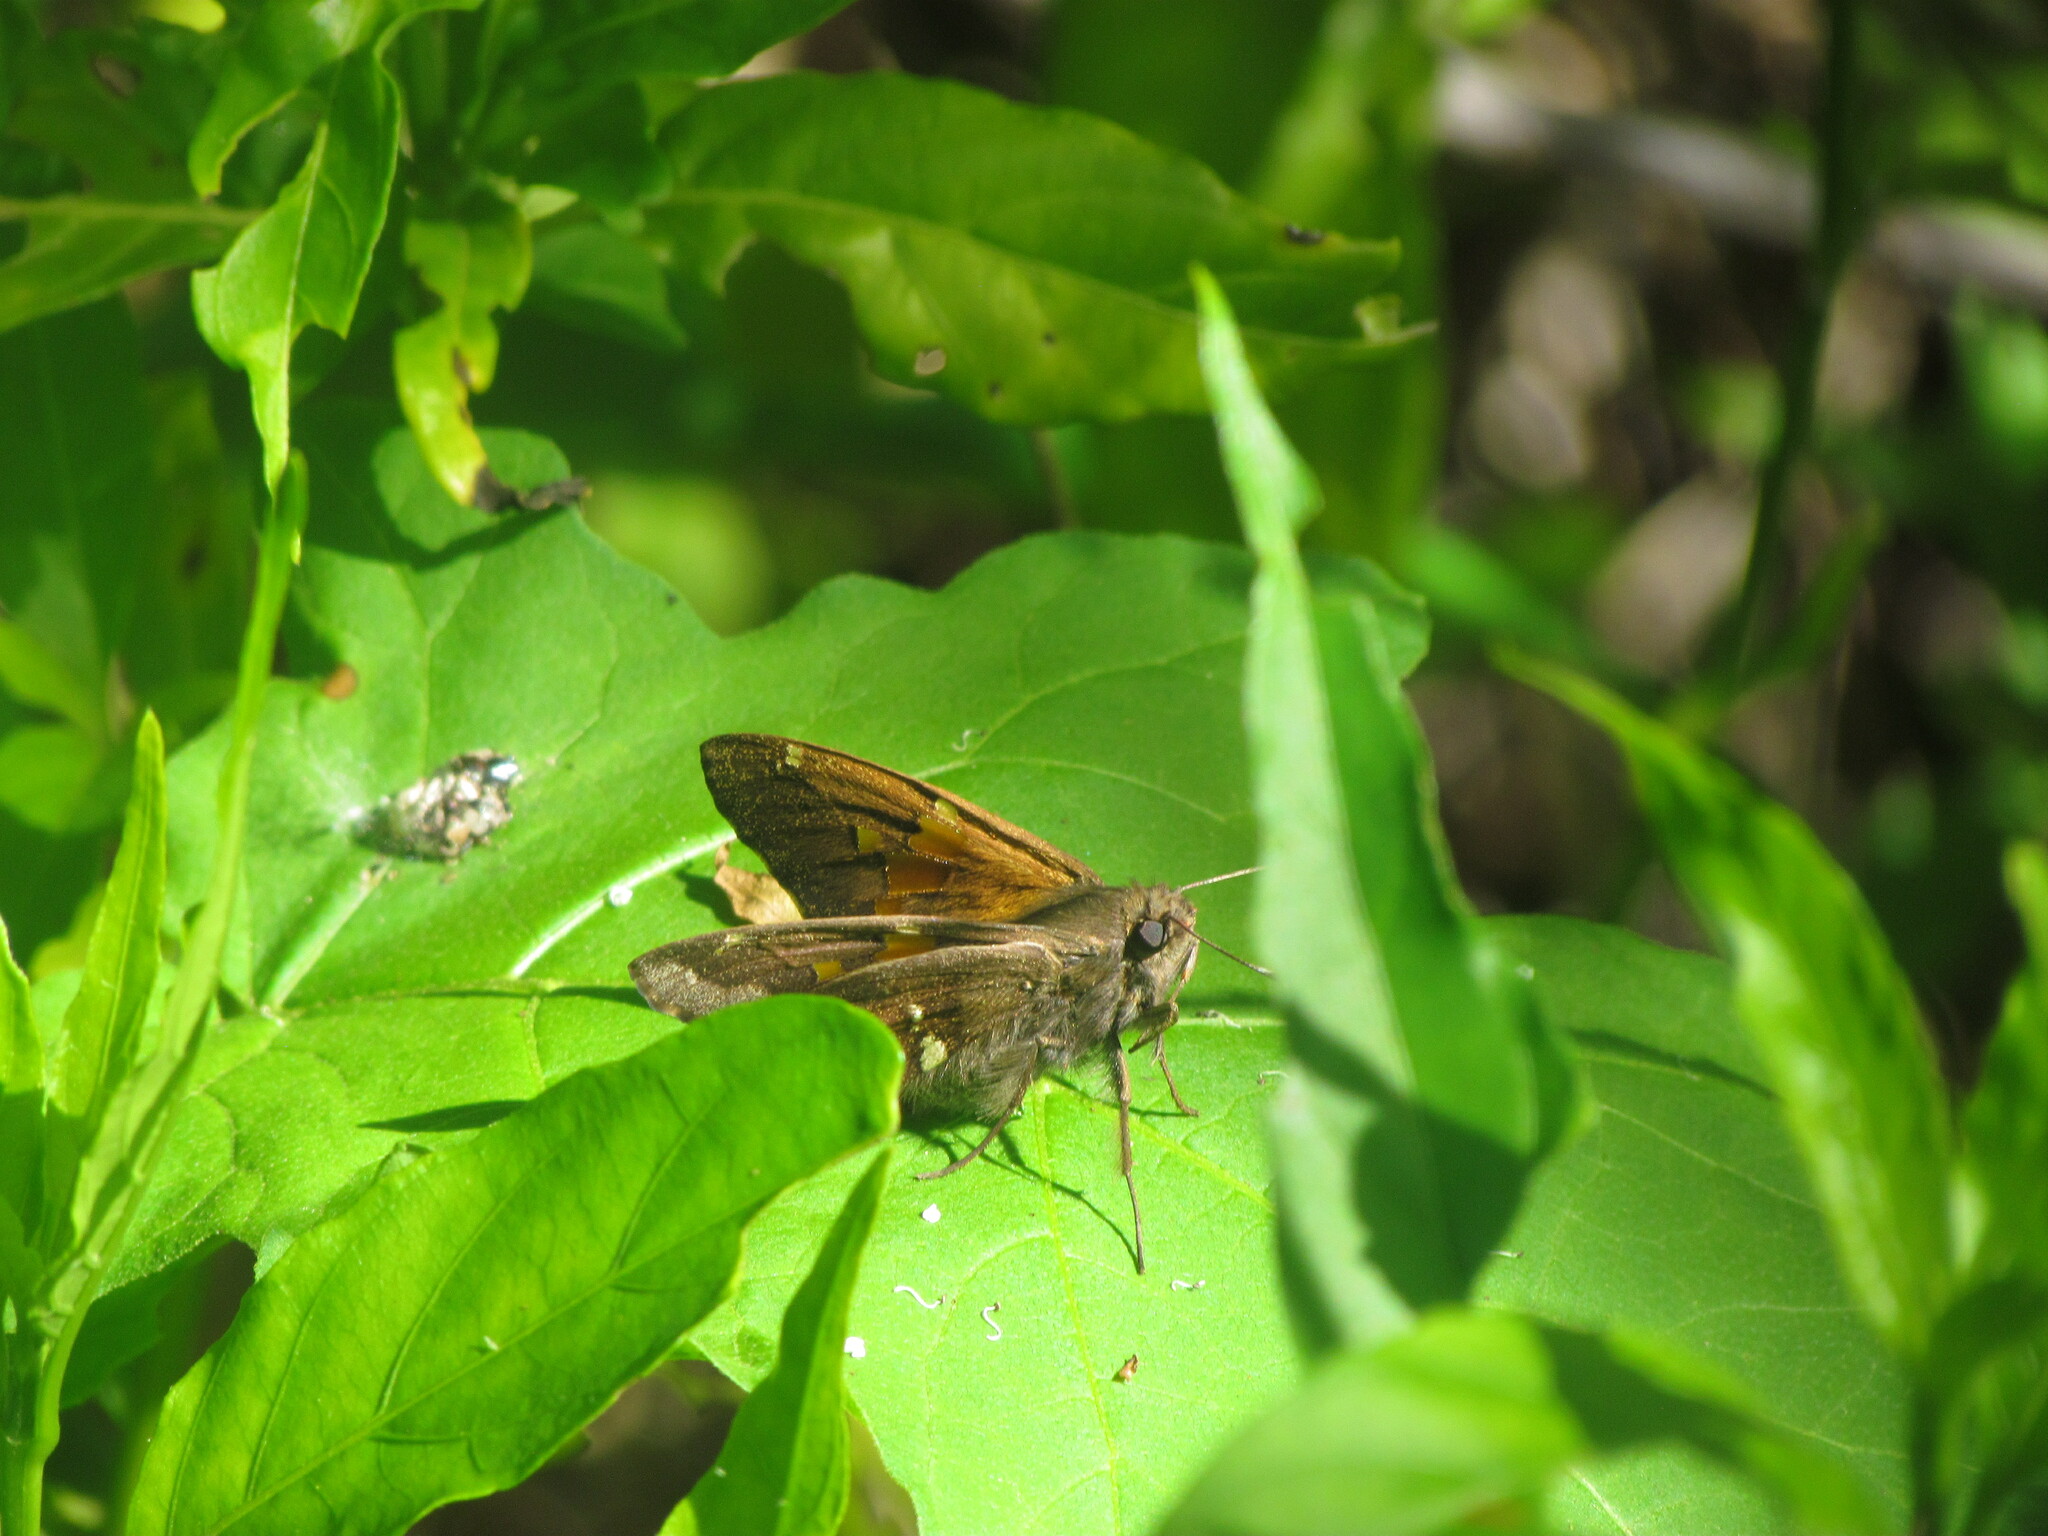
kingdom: Animalia
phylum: Arthropoda
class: Insecta
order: Lepidoptera
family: Hesperiidae
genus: Epargyreus
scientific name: Epargyreus tmolis
